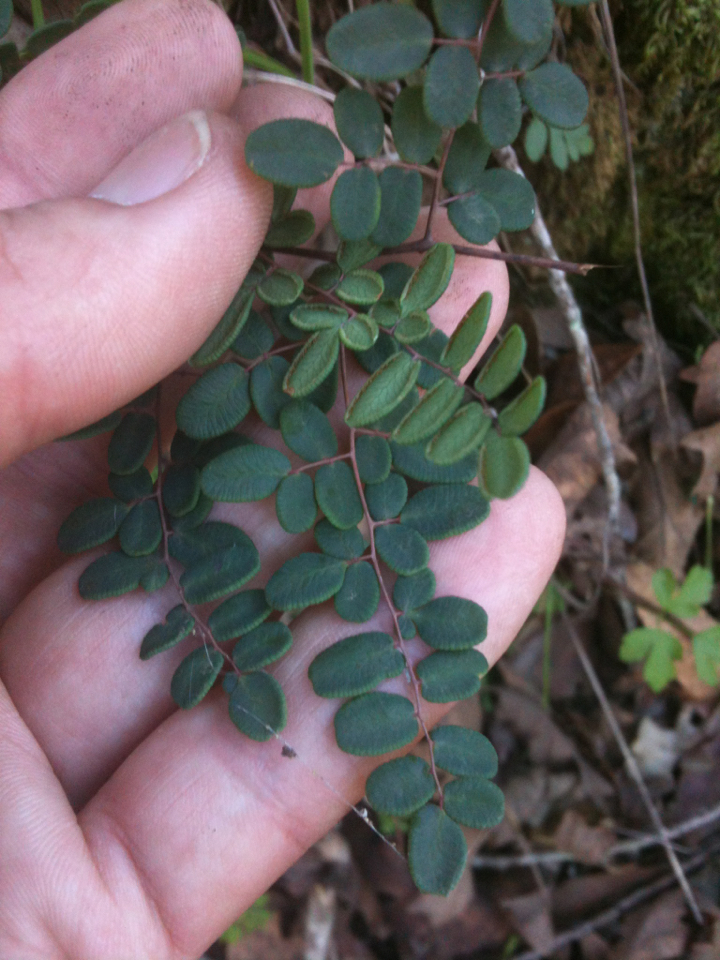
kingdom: Plantae
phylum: Tracheophyta
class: Polypodiopsida
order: Polypodiales
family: Pteridaceae
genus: Pellaea
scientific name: Pellaea andromedifolia
